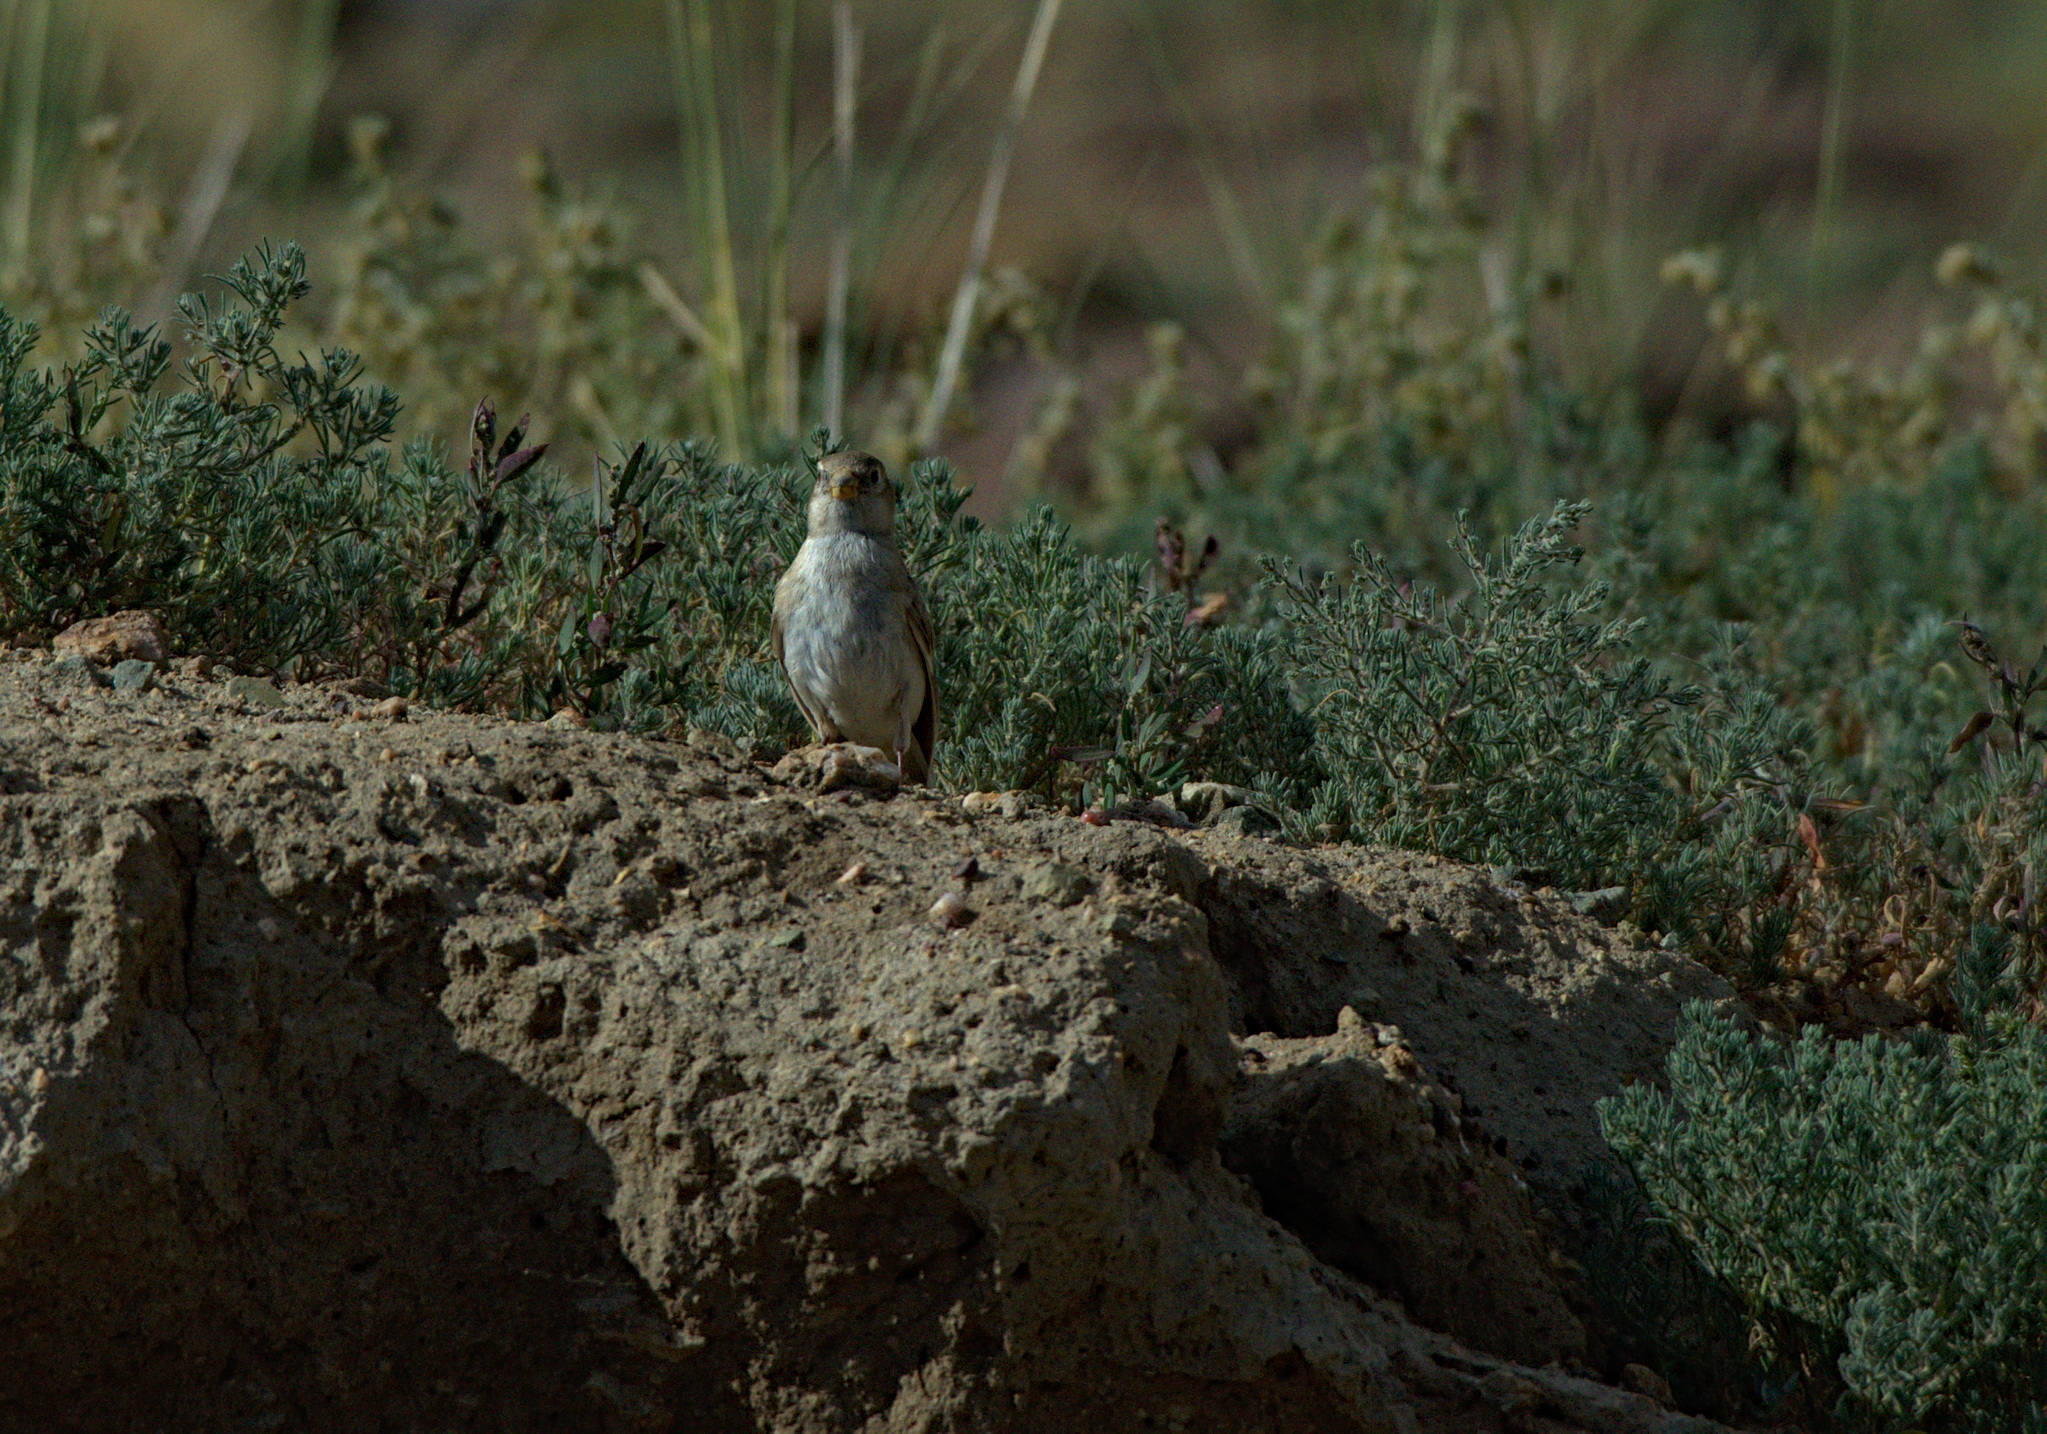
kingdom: Animalia
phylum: Chordata
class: Aves
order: Passeriformes
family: Passeridae
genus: Pyrgilauda
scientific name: Pyrgilauda davidiana
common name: Pere david's snowfinch
